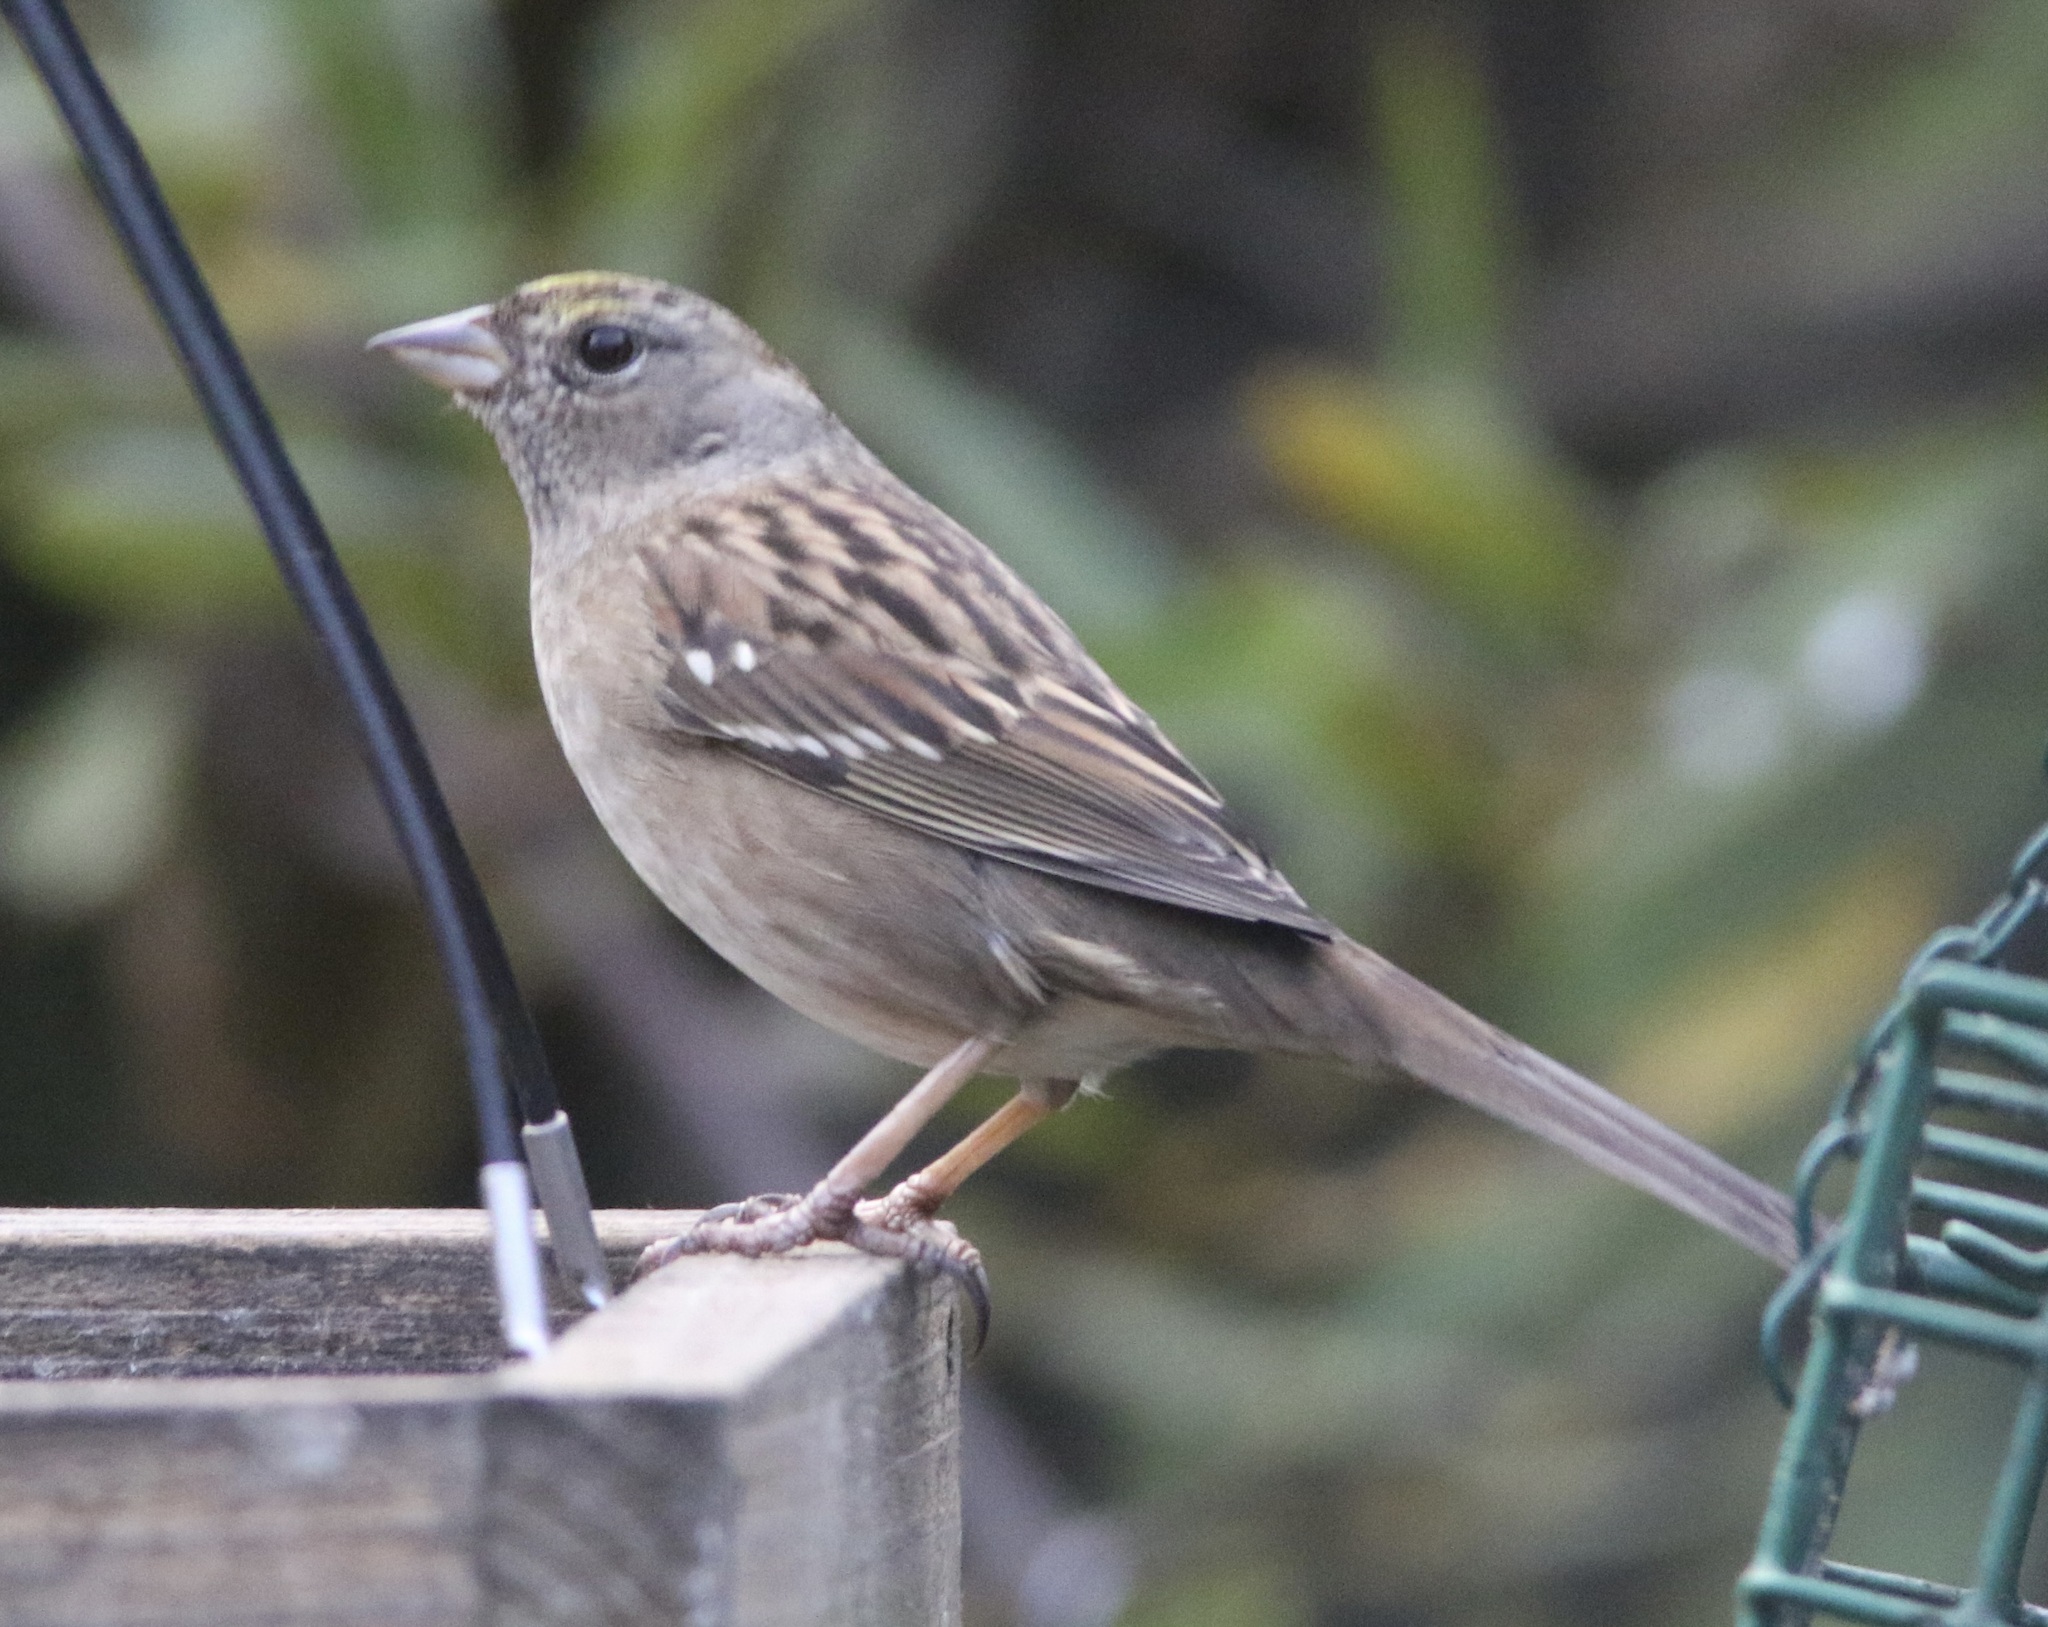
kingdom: Animalia
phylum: Chordata
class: Aves
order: Passeriformes
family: Passerellidae
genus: Zonotrichia
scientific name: Zonotrichia atricapilla
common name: Golden-crowned sparrow
